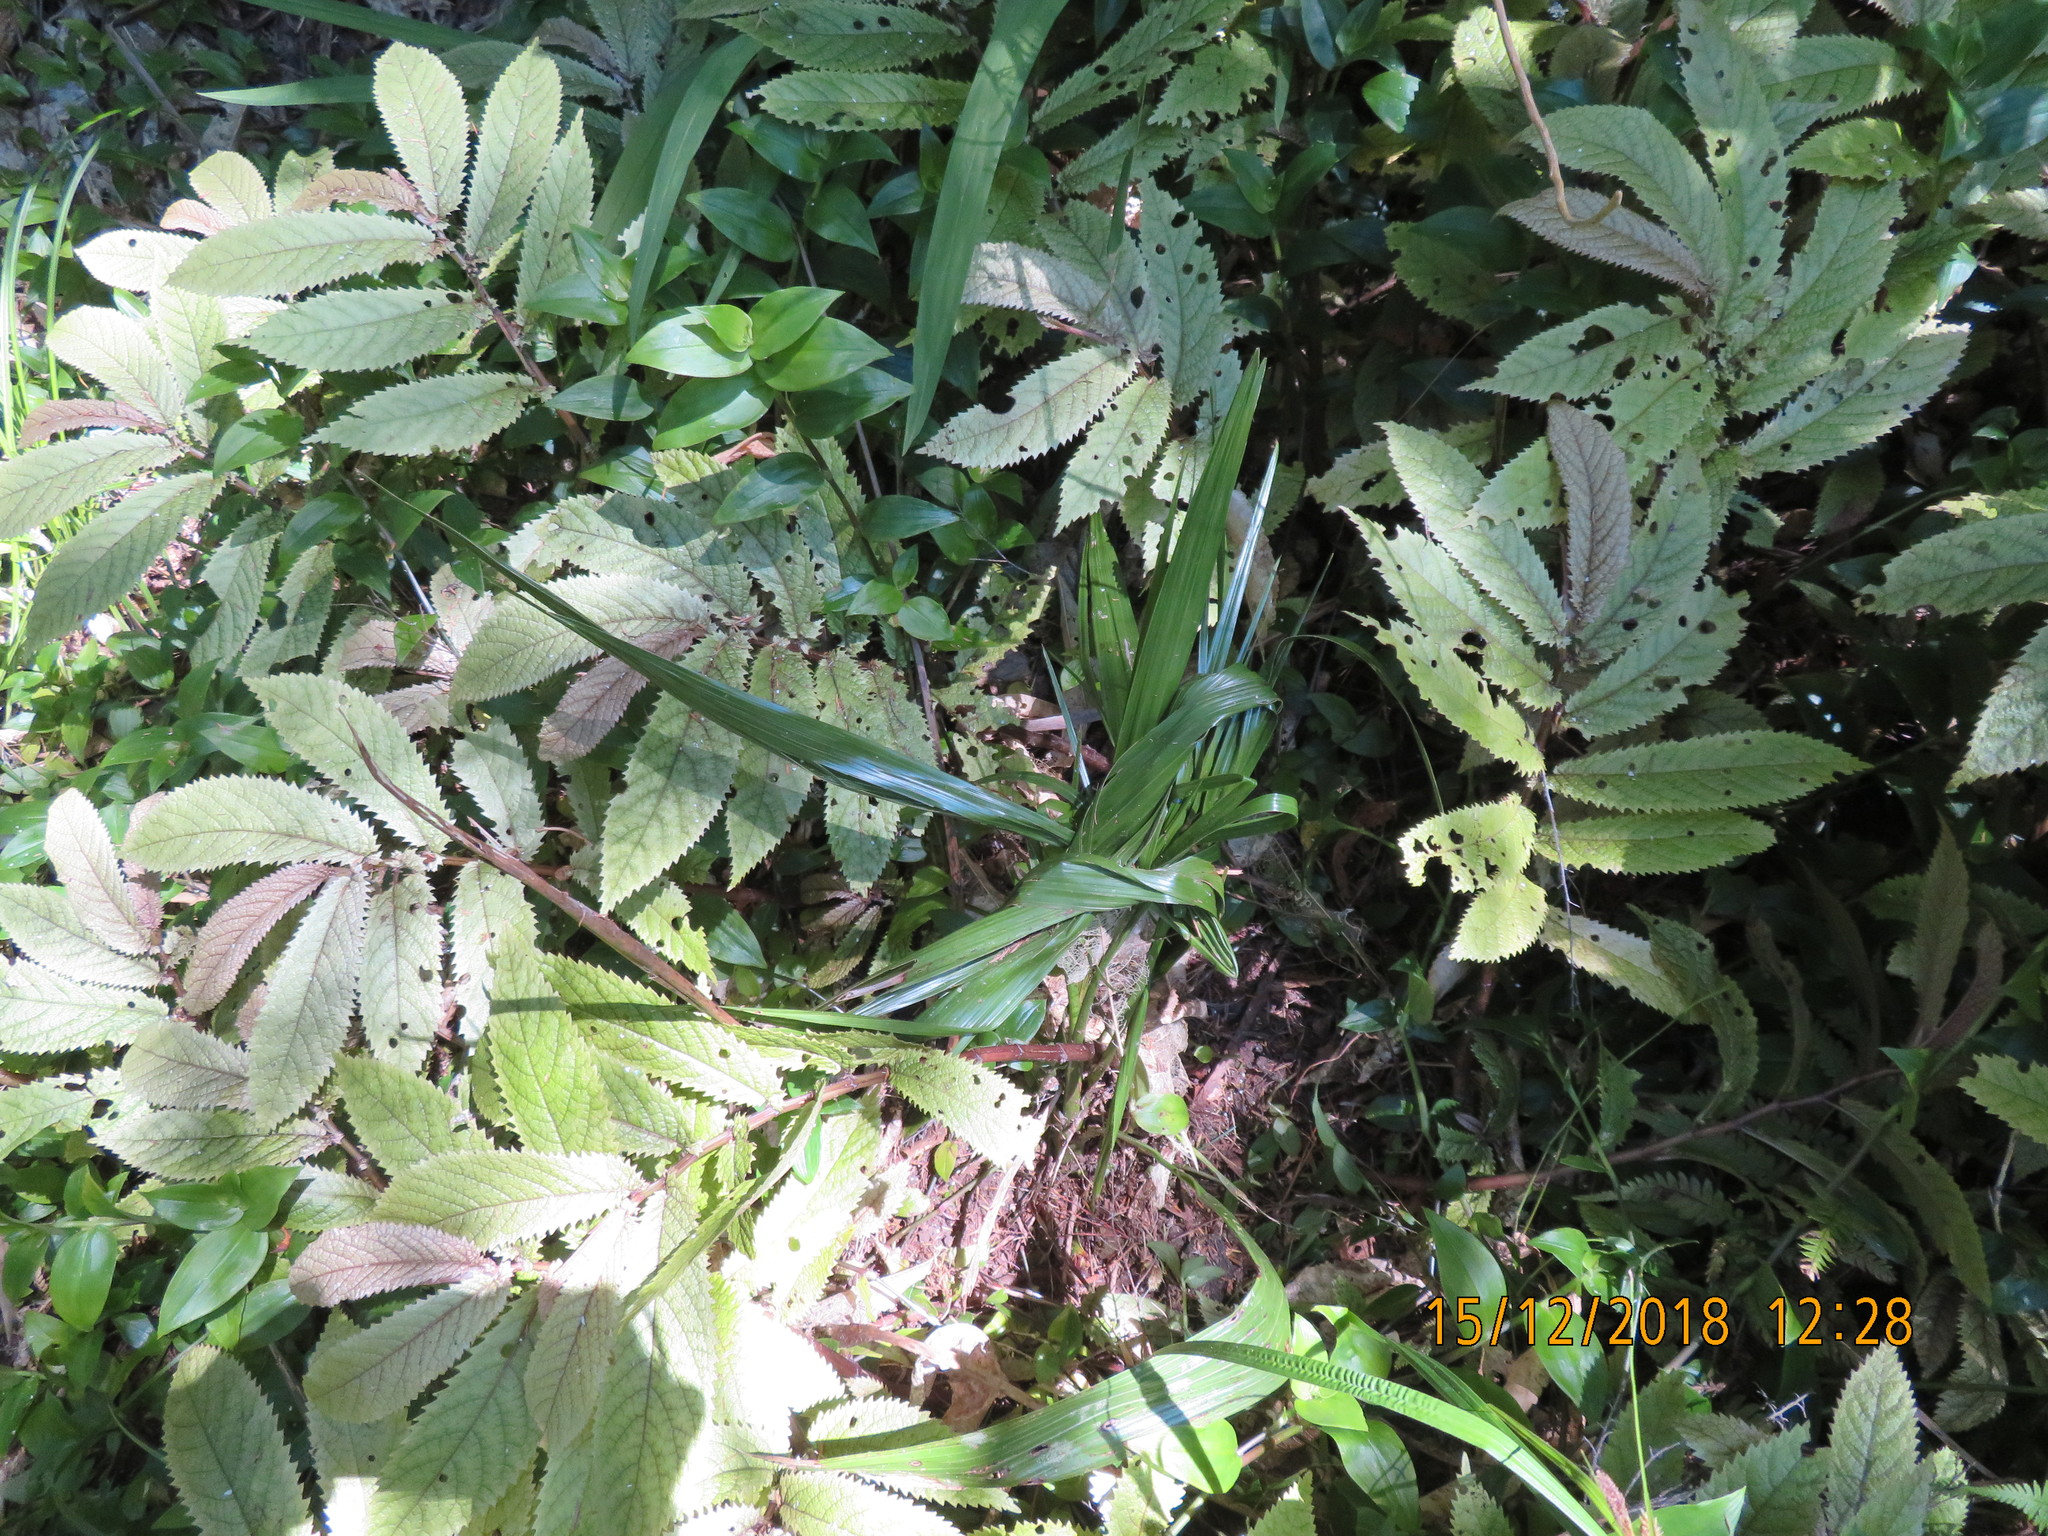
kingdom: Plantae
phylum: Tracheophyta
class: Liliopsida
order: Arecales
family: Arecaceae
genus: Phoenix
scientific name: Phoenix canariensis
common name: Canary island date palm
